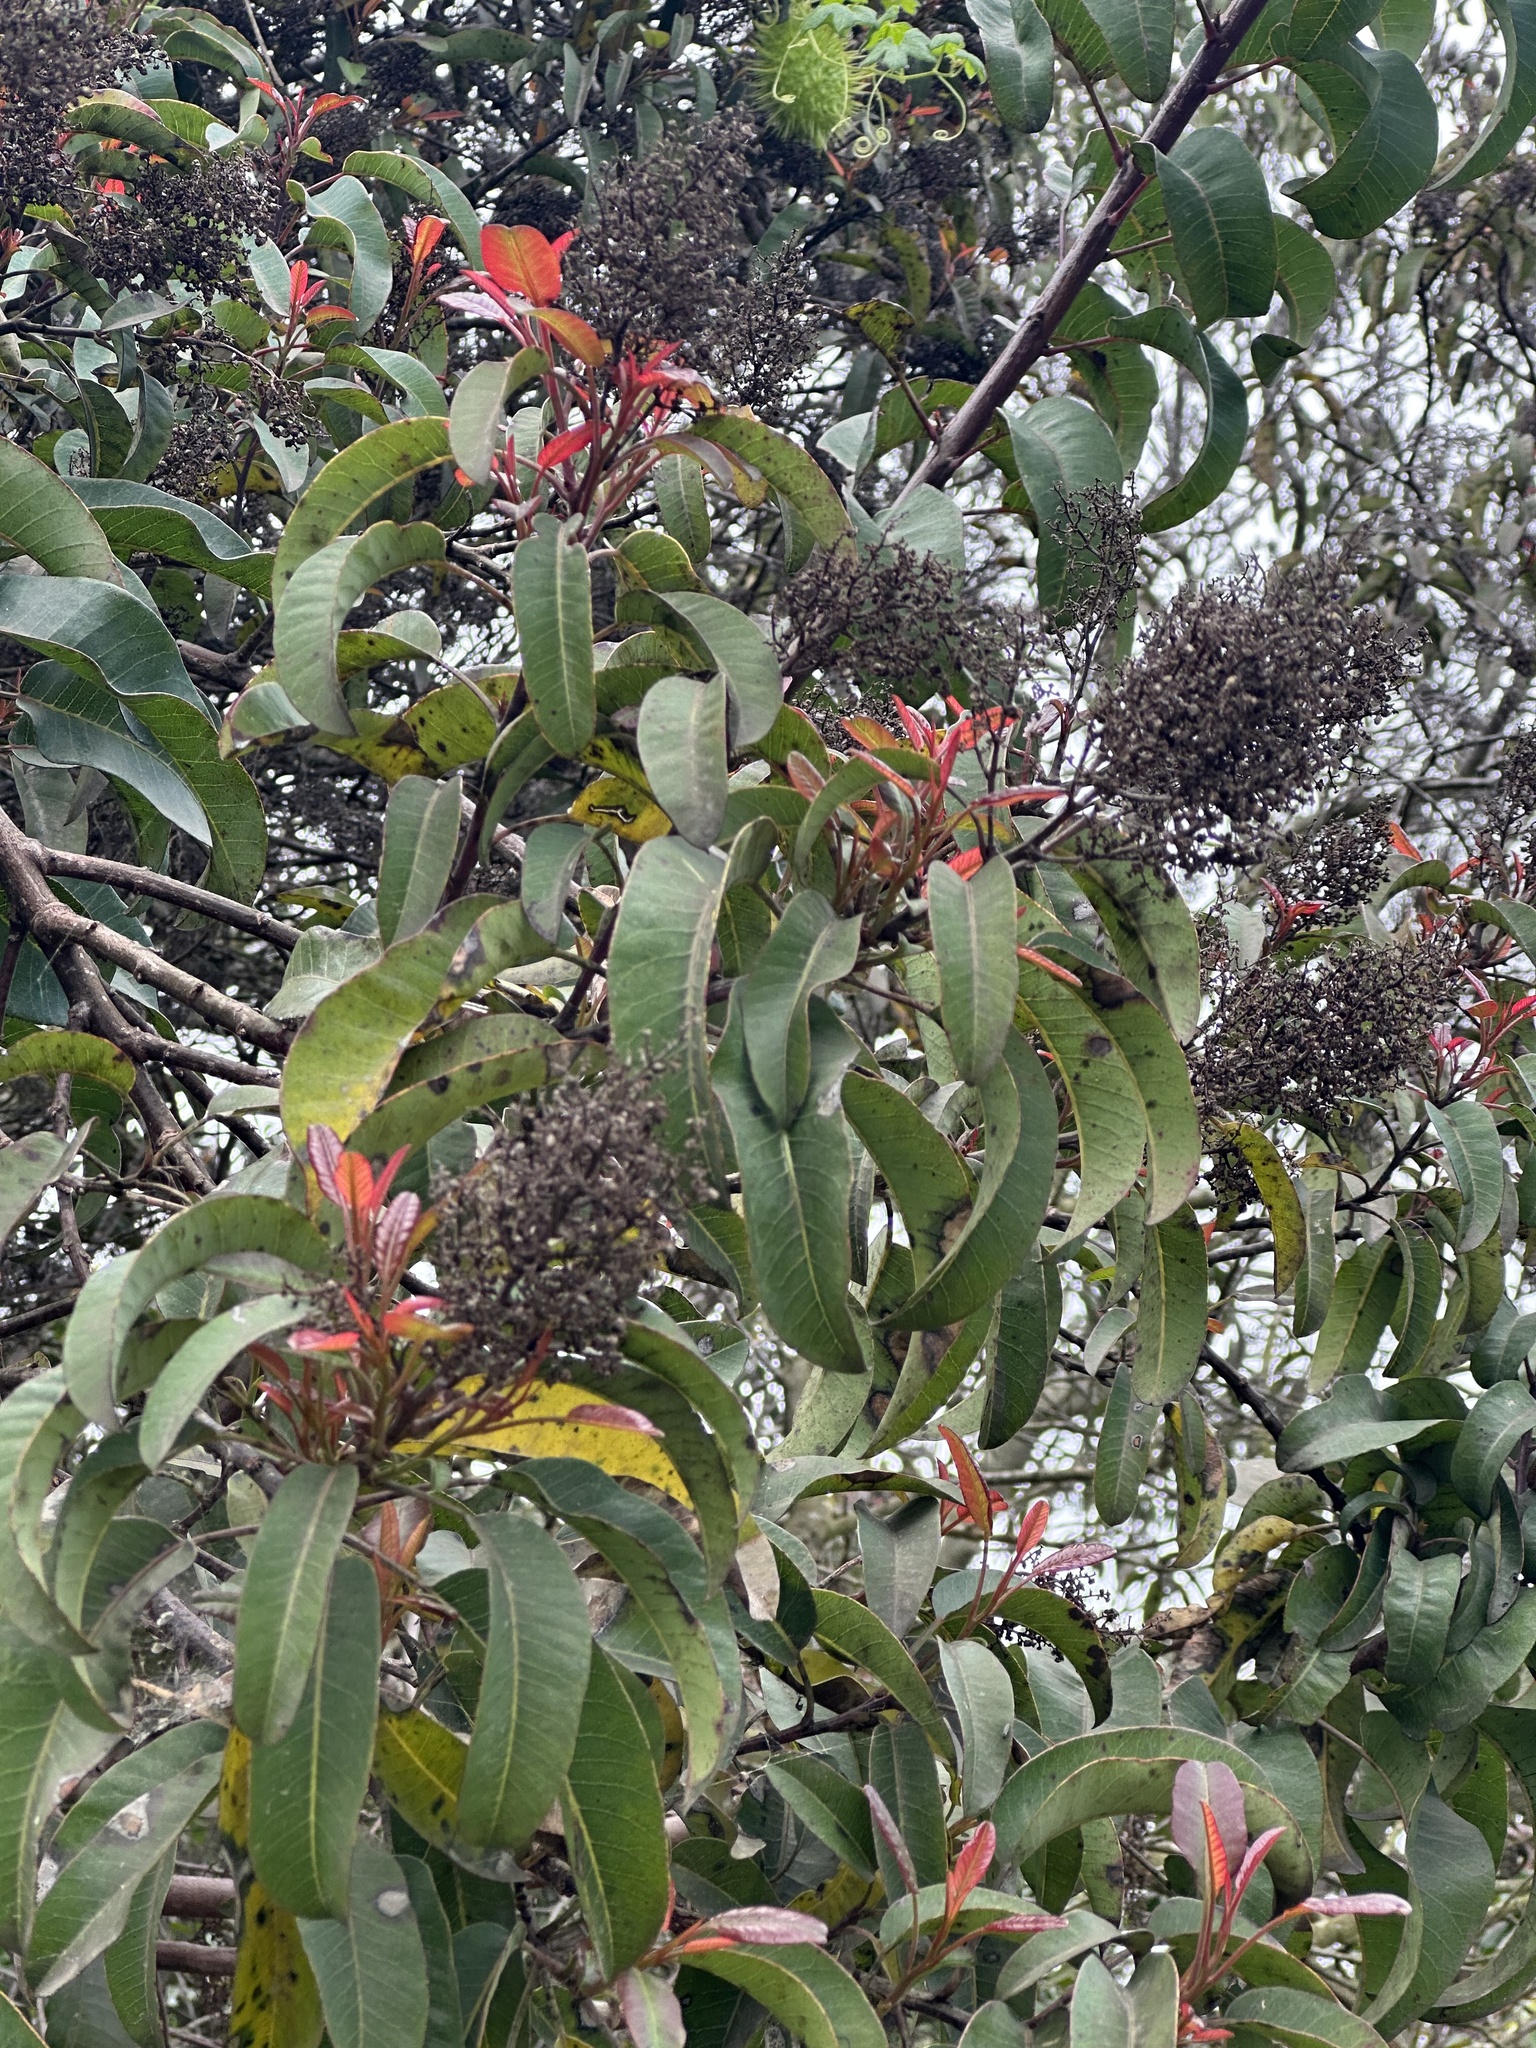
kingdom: Plantae
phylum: Tracheophyta
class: Magnoliopsida
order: Sapindales
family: Anacardiaceae
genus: Malosma
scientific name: Malosma laurina
